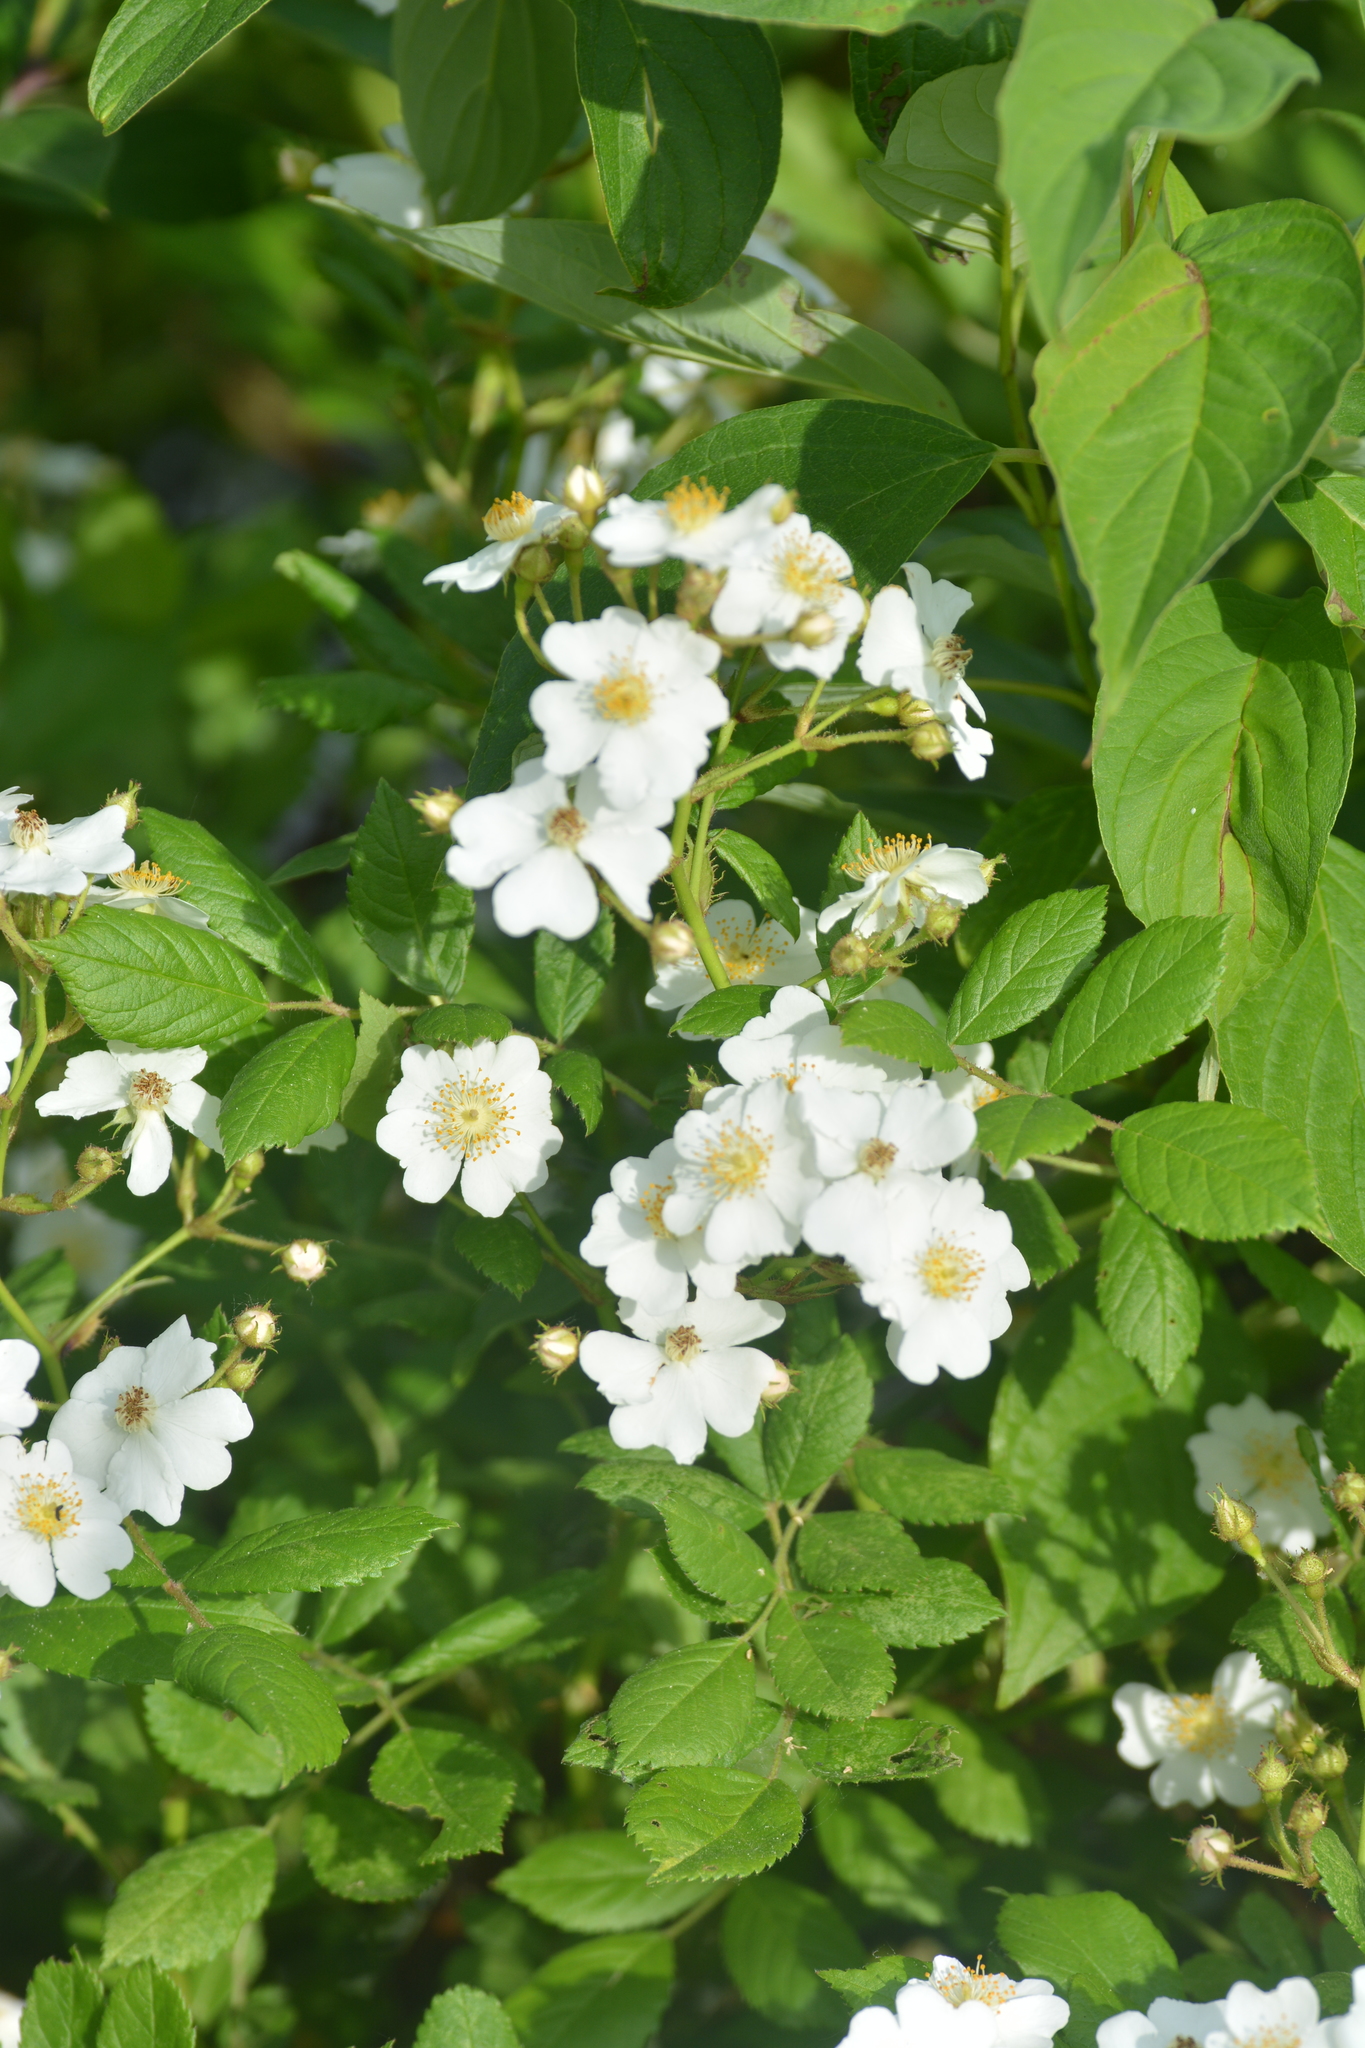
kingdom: Plantae
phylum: Tracheophyta
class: Magnoliopsida
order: Rosales
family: Rosaceae
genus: Rosa
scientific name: Rosa multiflora
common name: Multiflora rose
